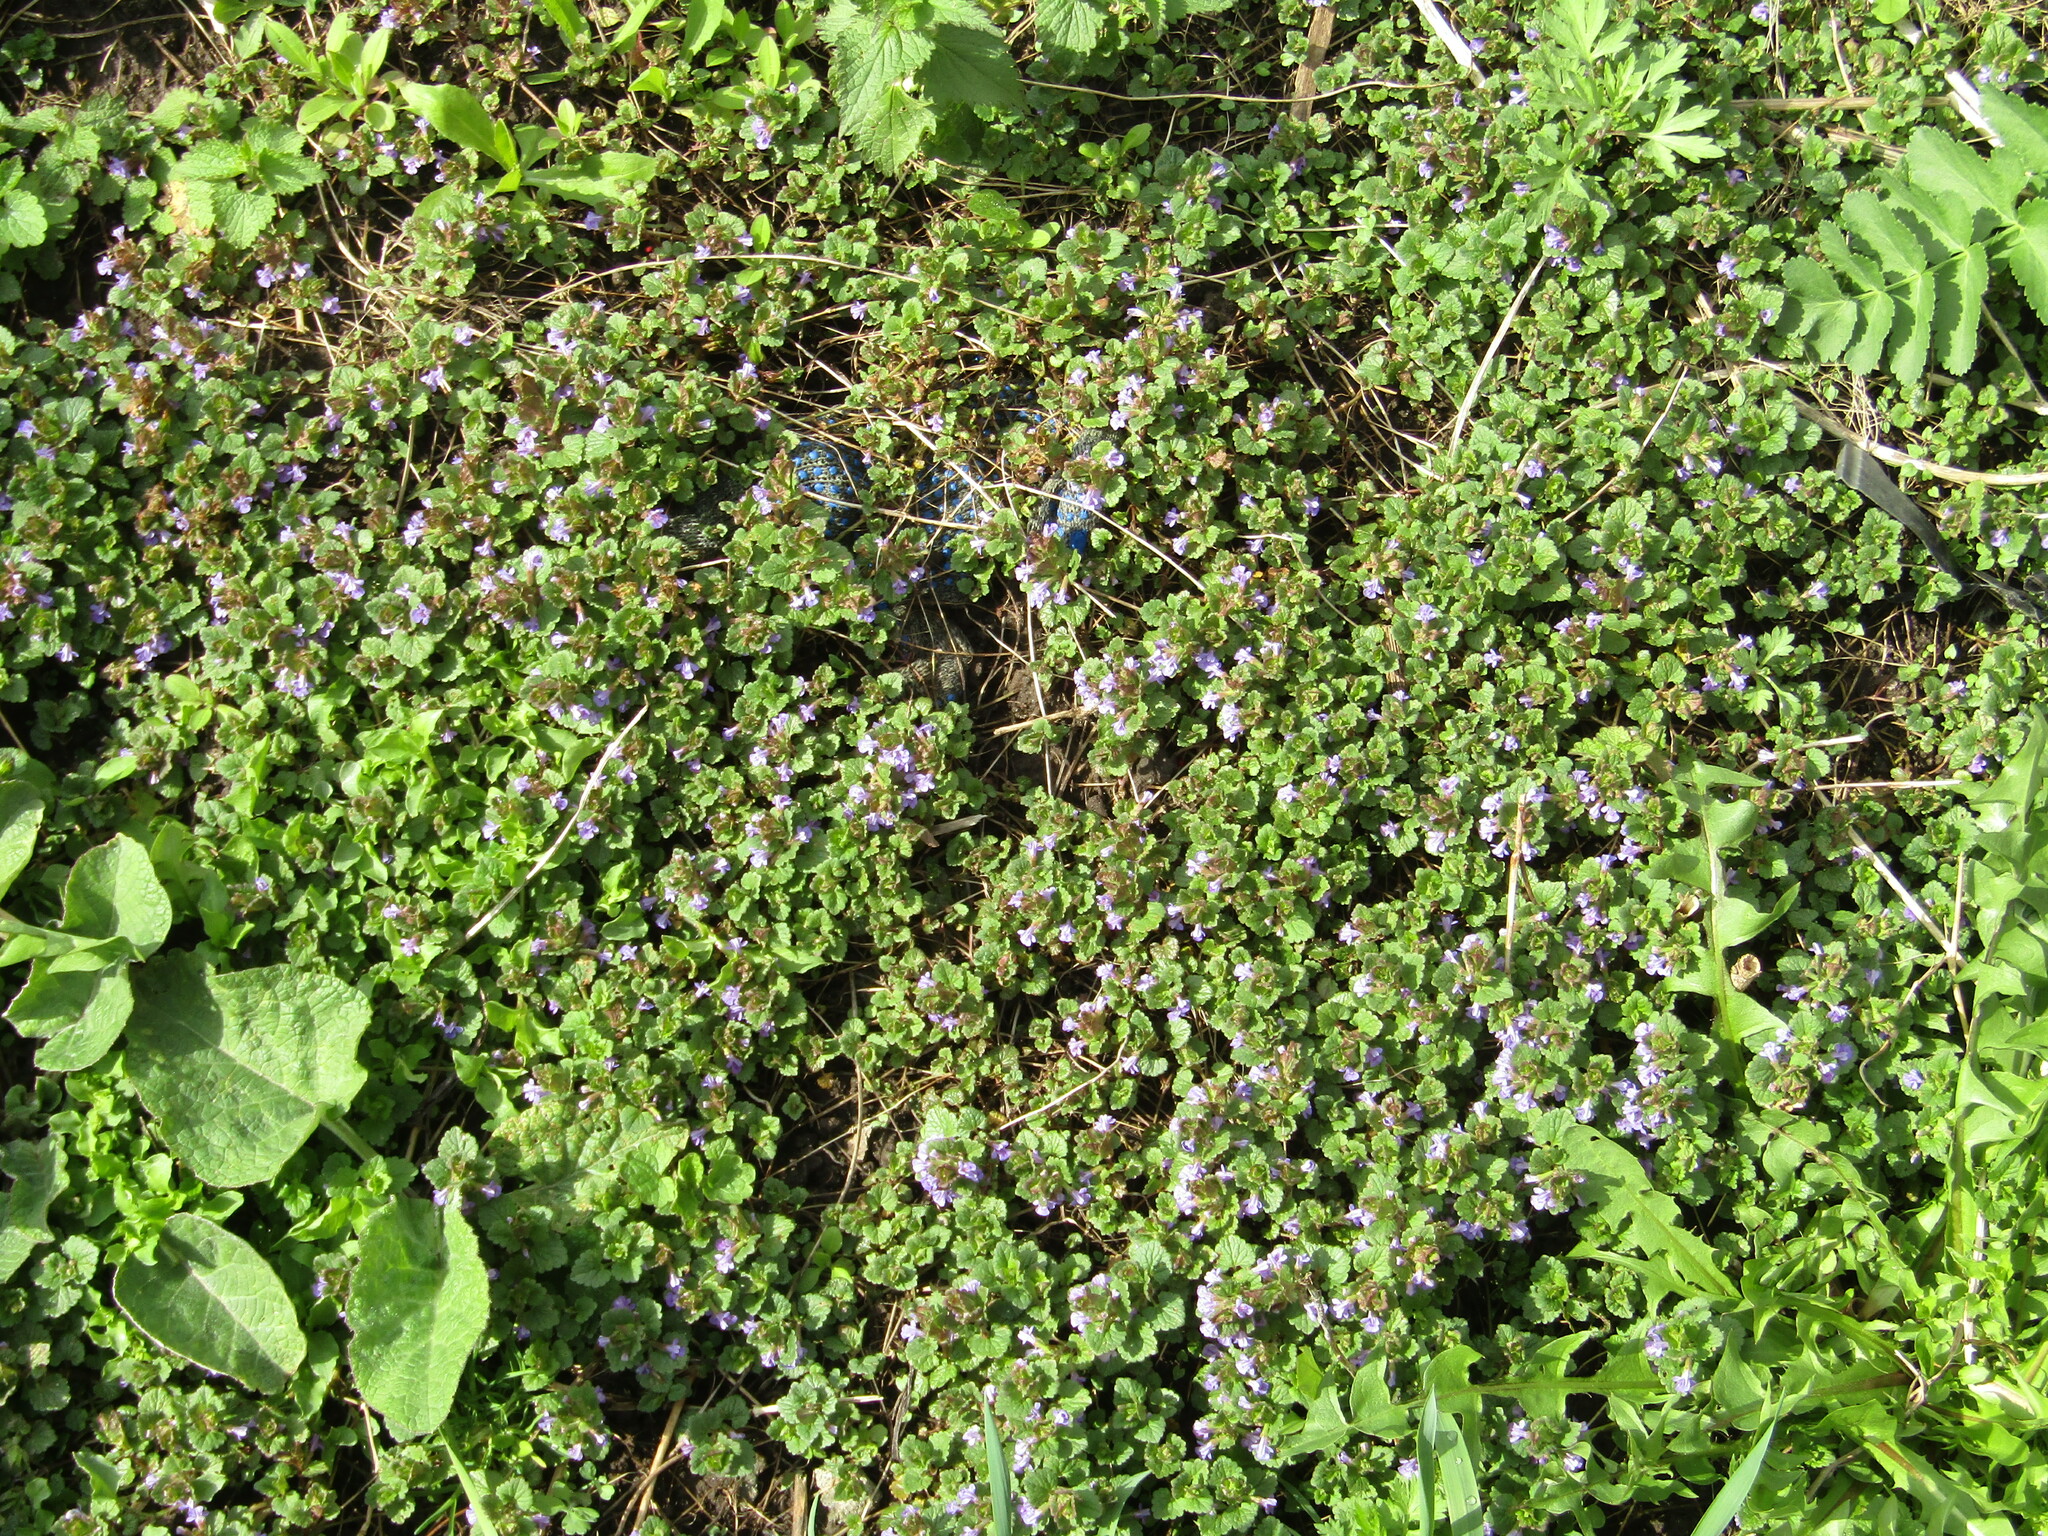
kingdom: Plantae
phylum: Tracheophyta
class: Magnoliopsida
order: Lamiales
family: Lamiaceae
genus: Glechoma
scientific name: Glechoma hederacea
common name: Ground ivy
